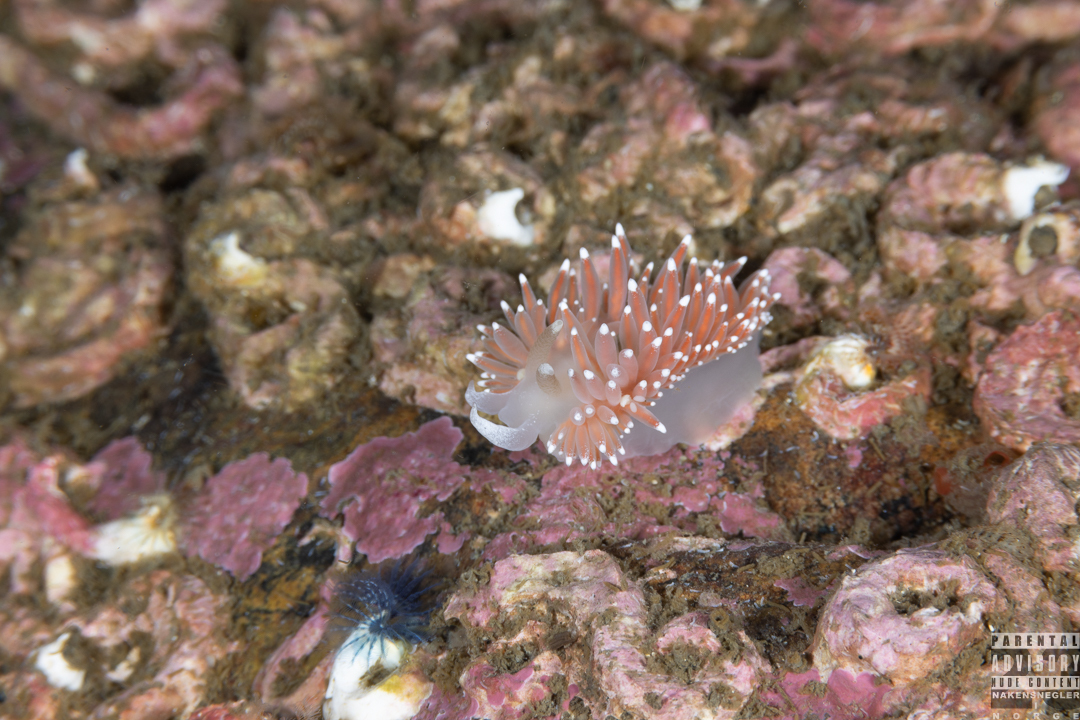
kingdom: Animalia
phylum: Mollusca
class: Gastropoda
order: Nudibranchia
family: Coryphellidae
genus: Coryphella
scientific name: Coryphella nobilis
